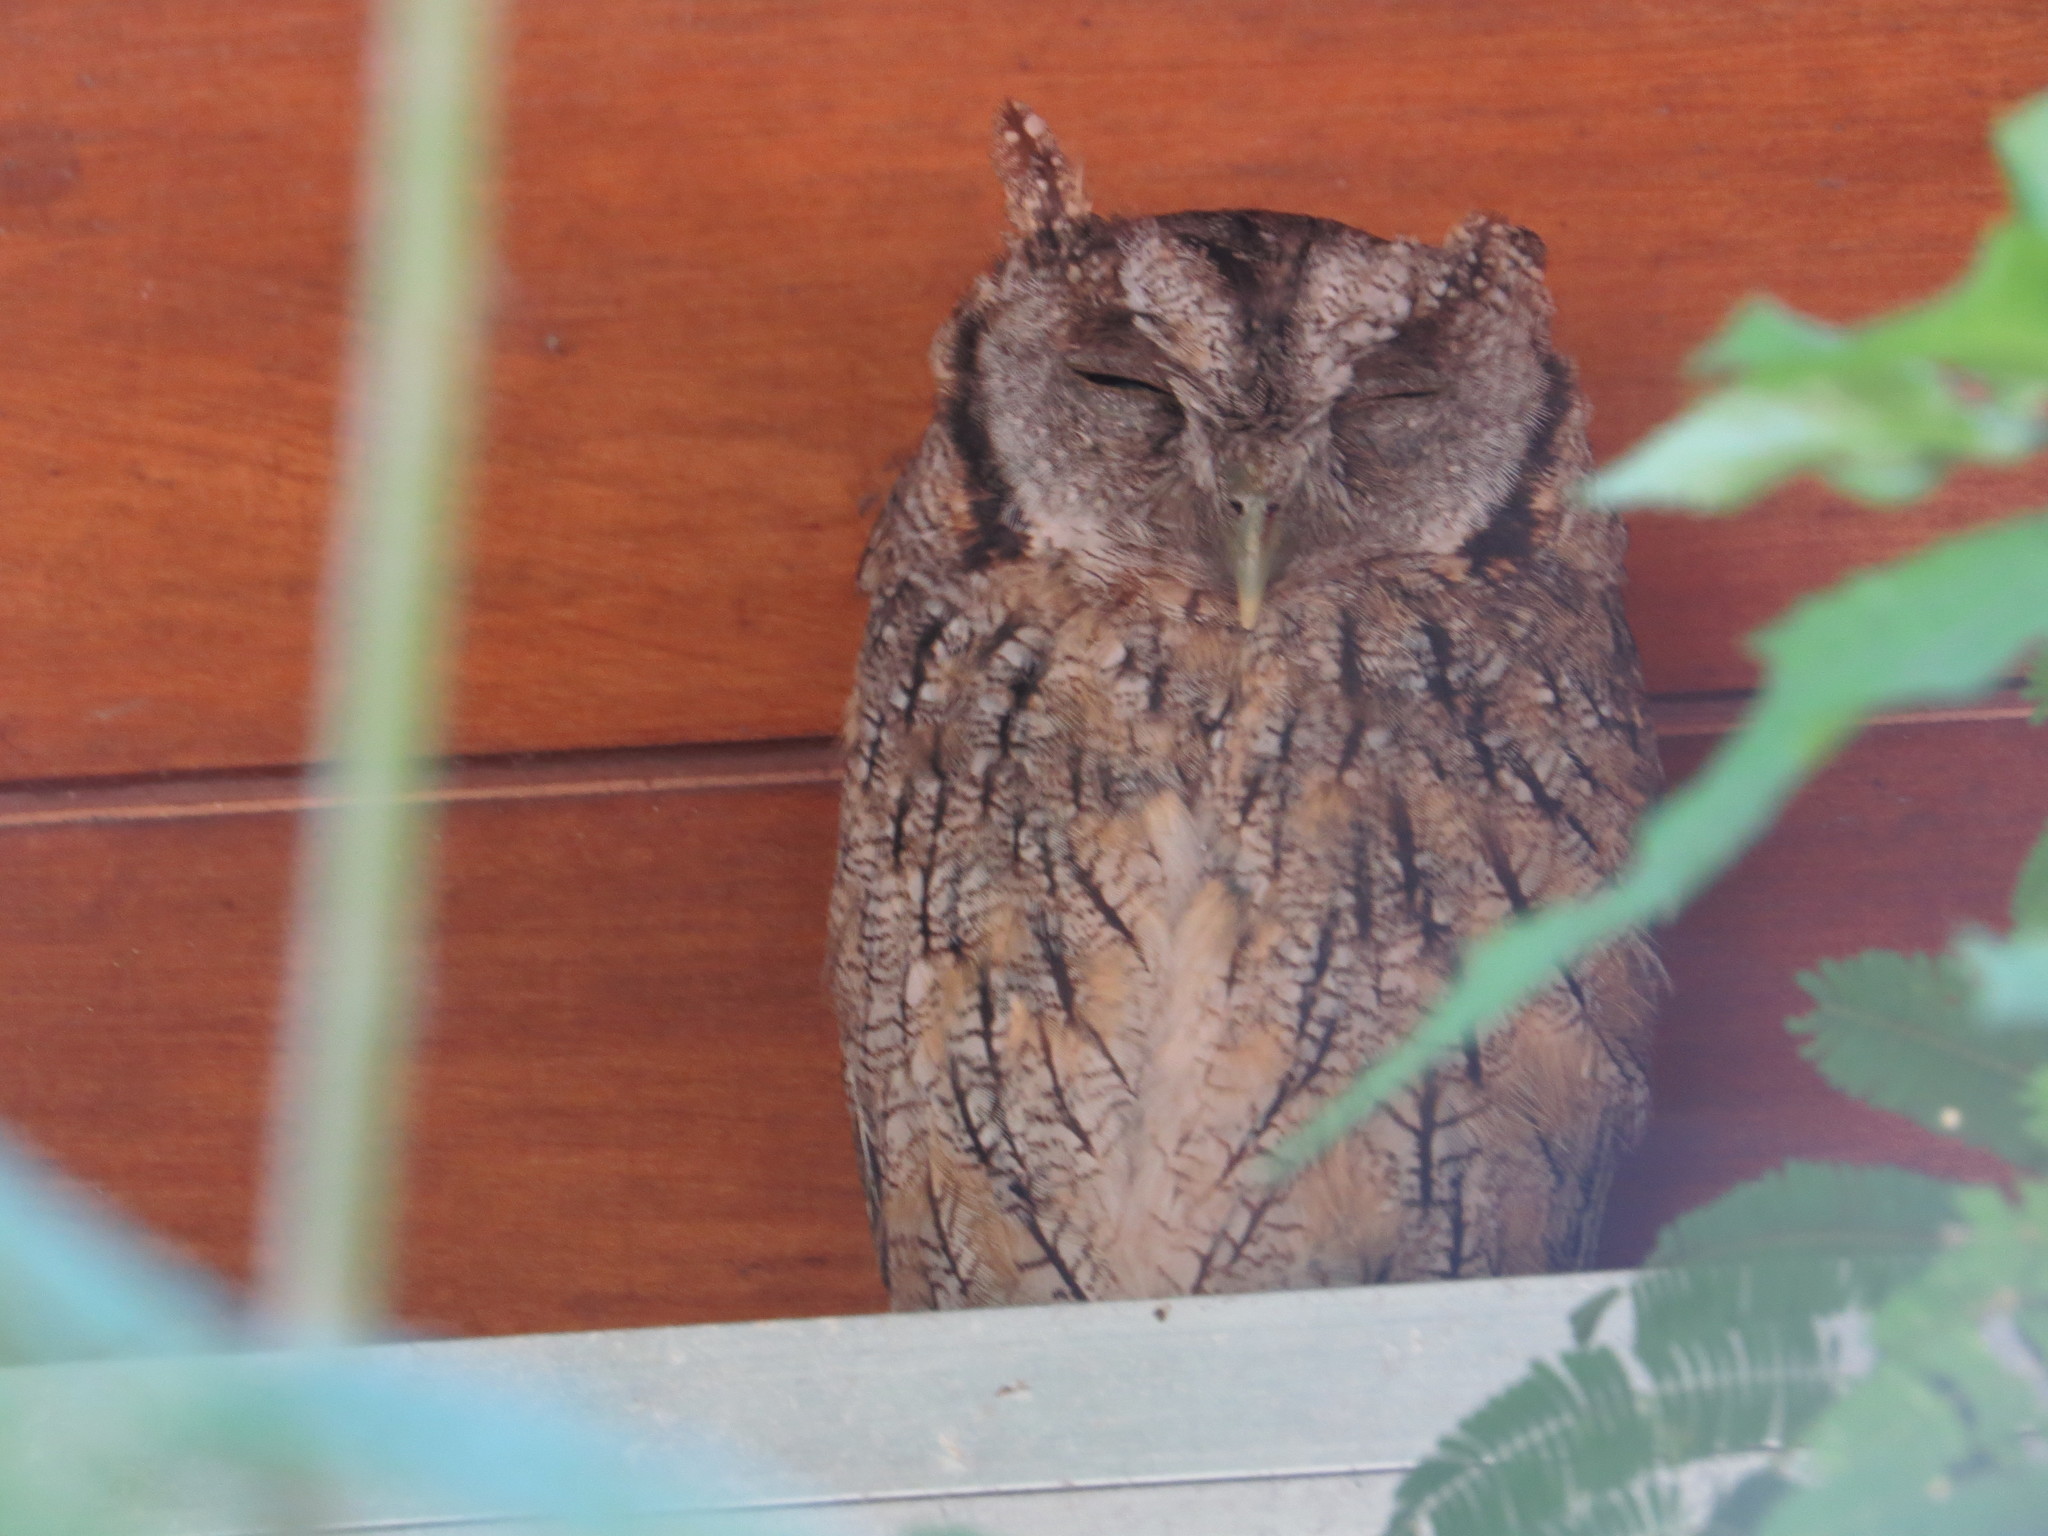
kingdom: Animalia
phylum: Chordata
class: Aves
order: Strigiformes
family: Strigidae
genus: Megascops
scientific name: Megascops choliba
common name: Tropical screech-owl
